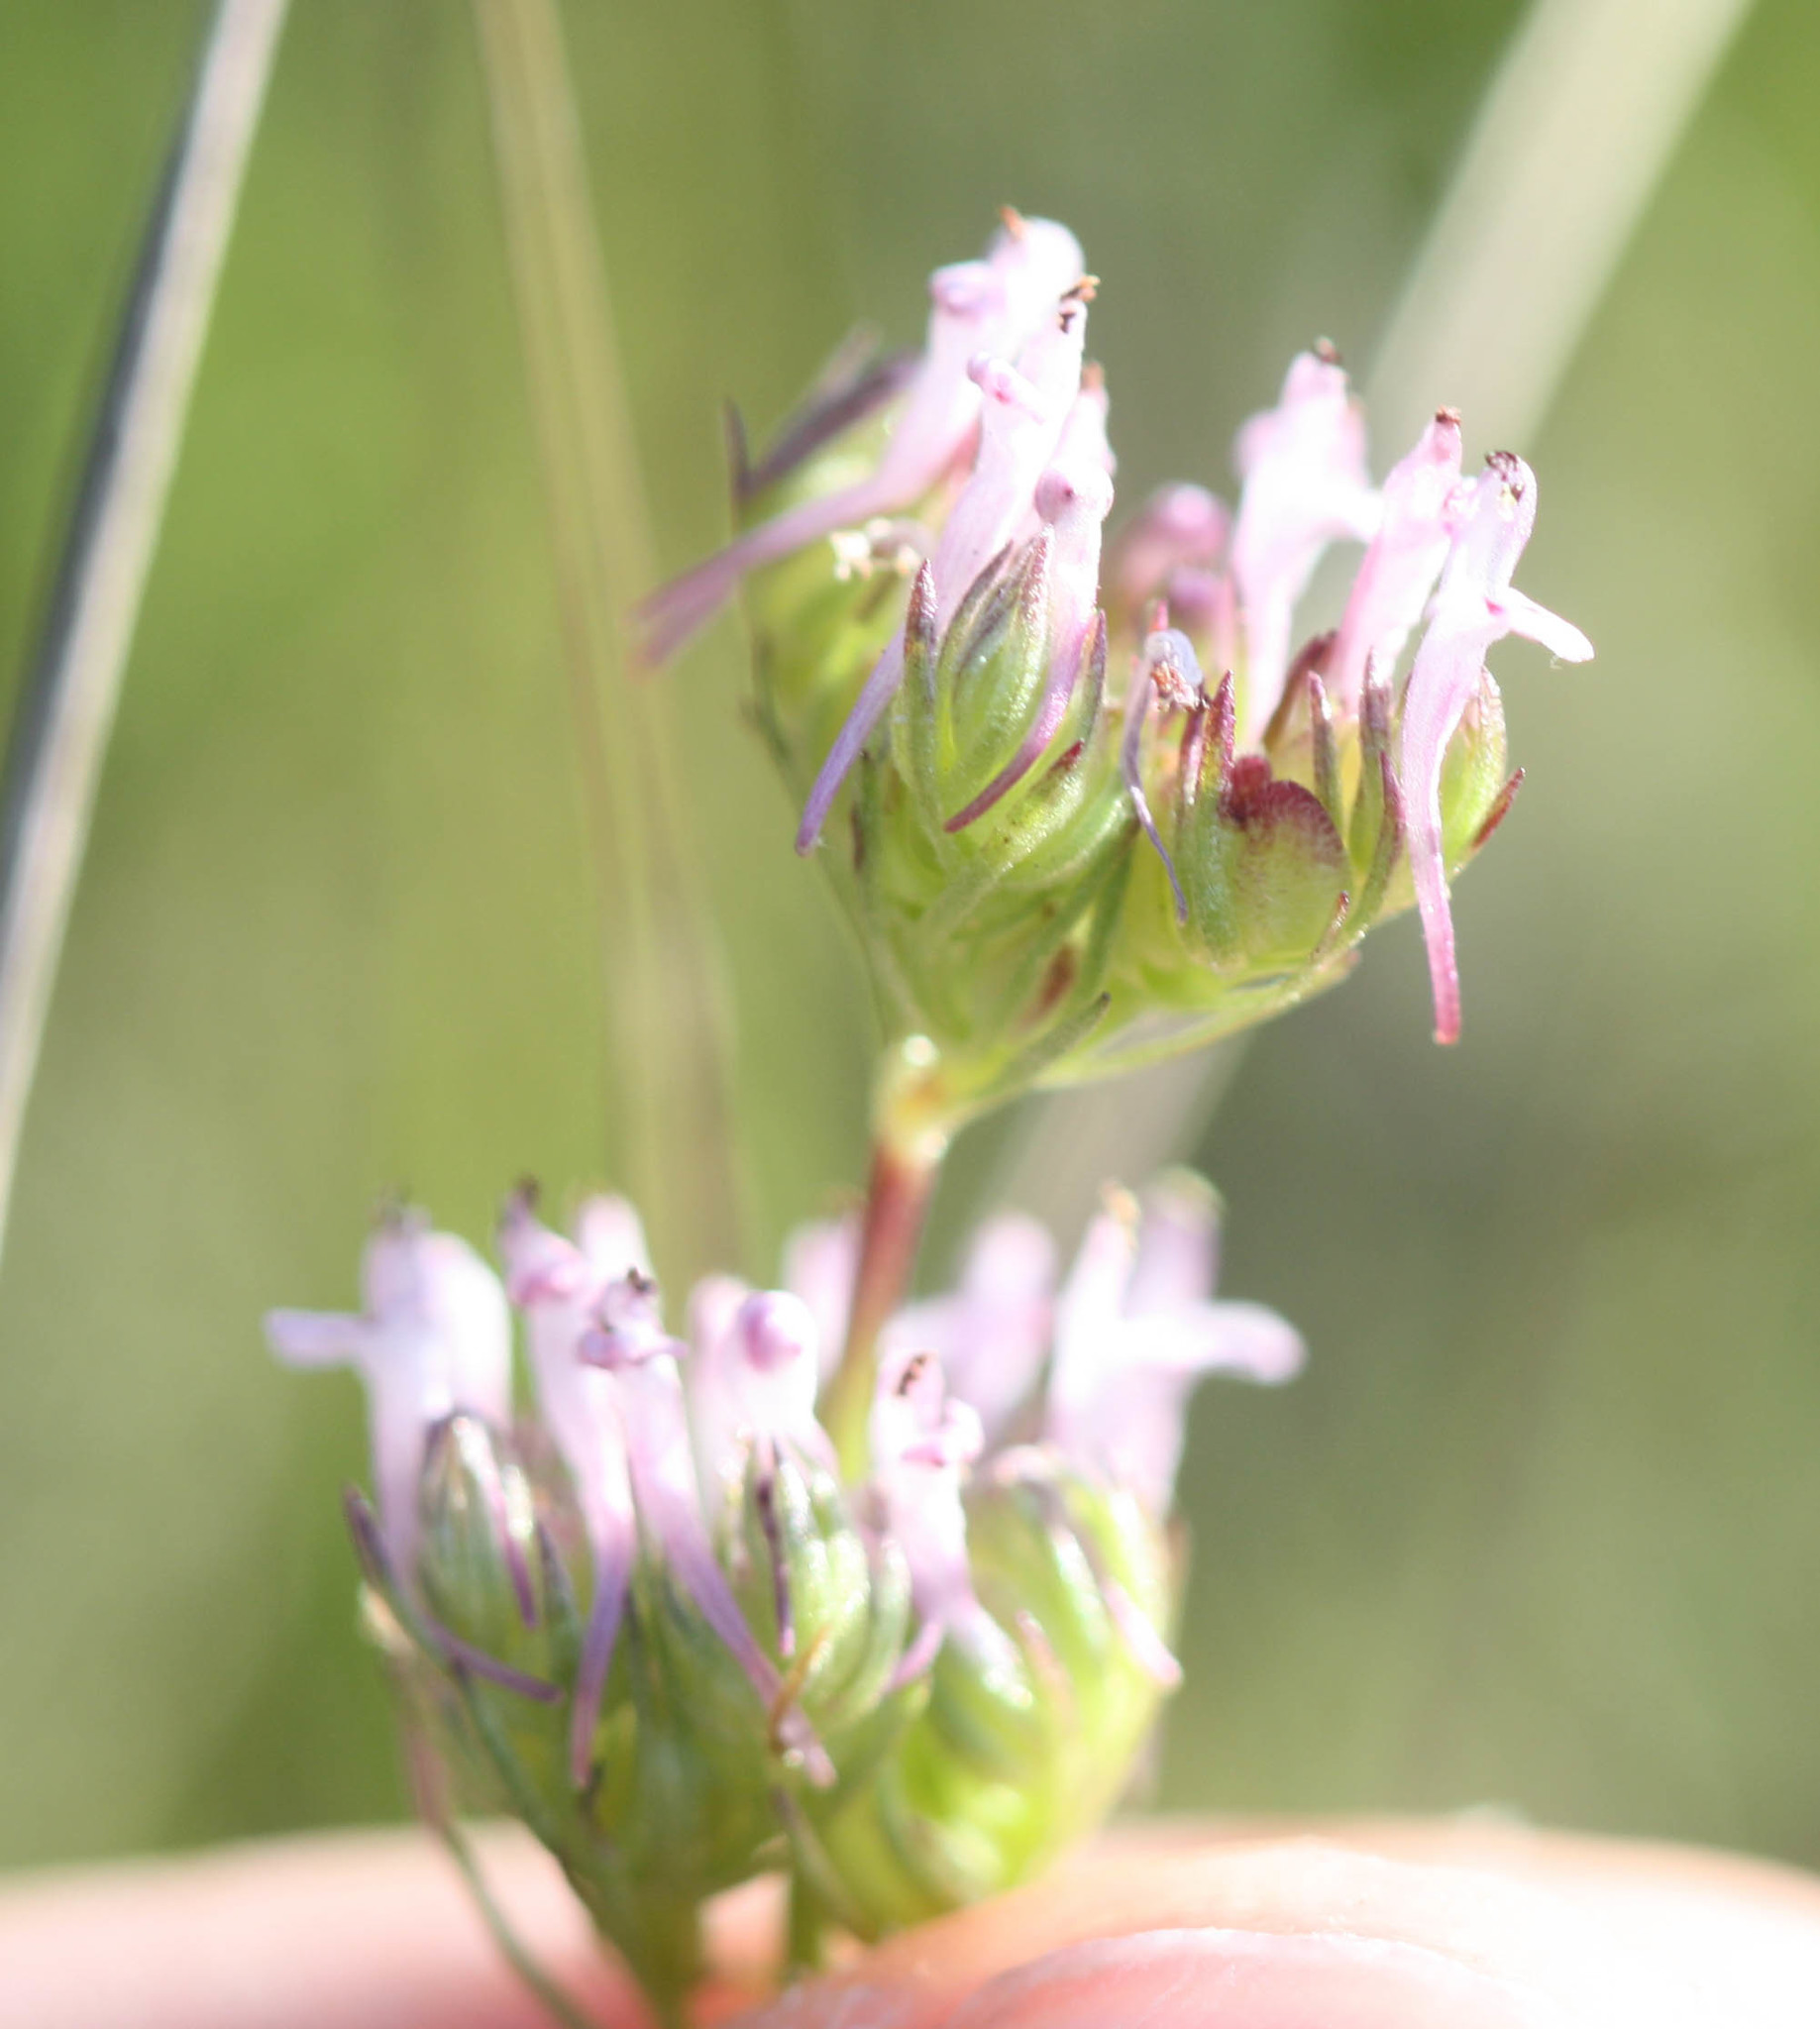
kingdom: Plantae
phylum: Tracheophyta
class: Magnoliopsida
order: Dipsacales
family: Caprifoliaceae
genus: Plectritis
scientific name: Plectritis ciliosa
